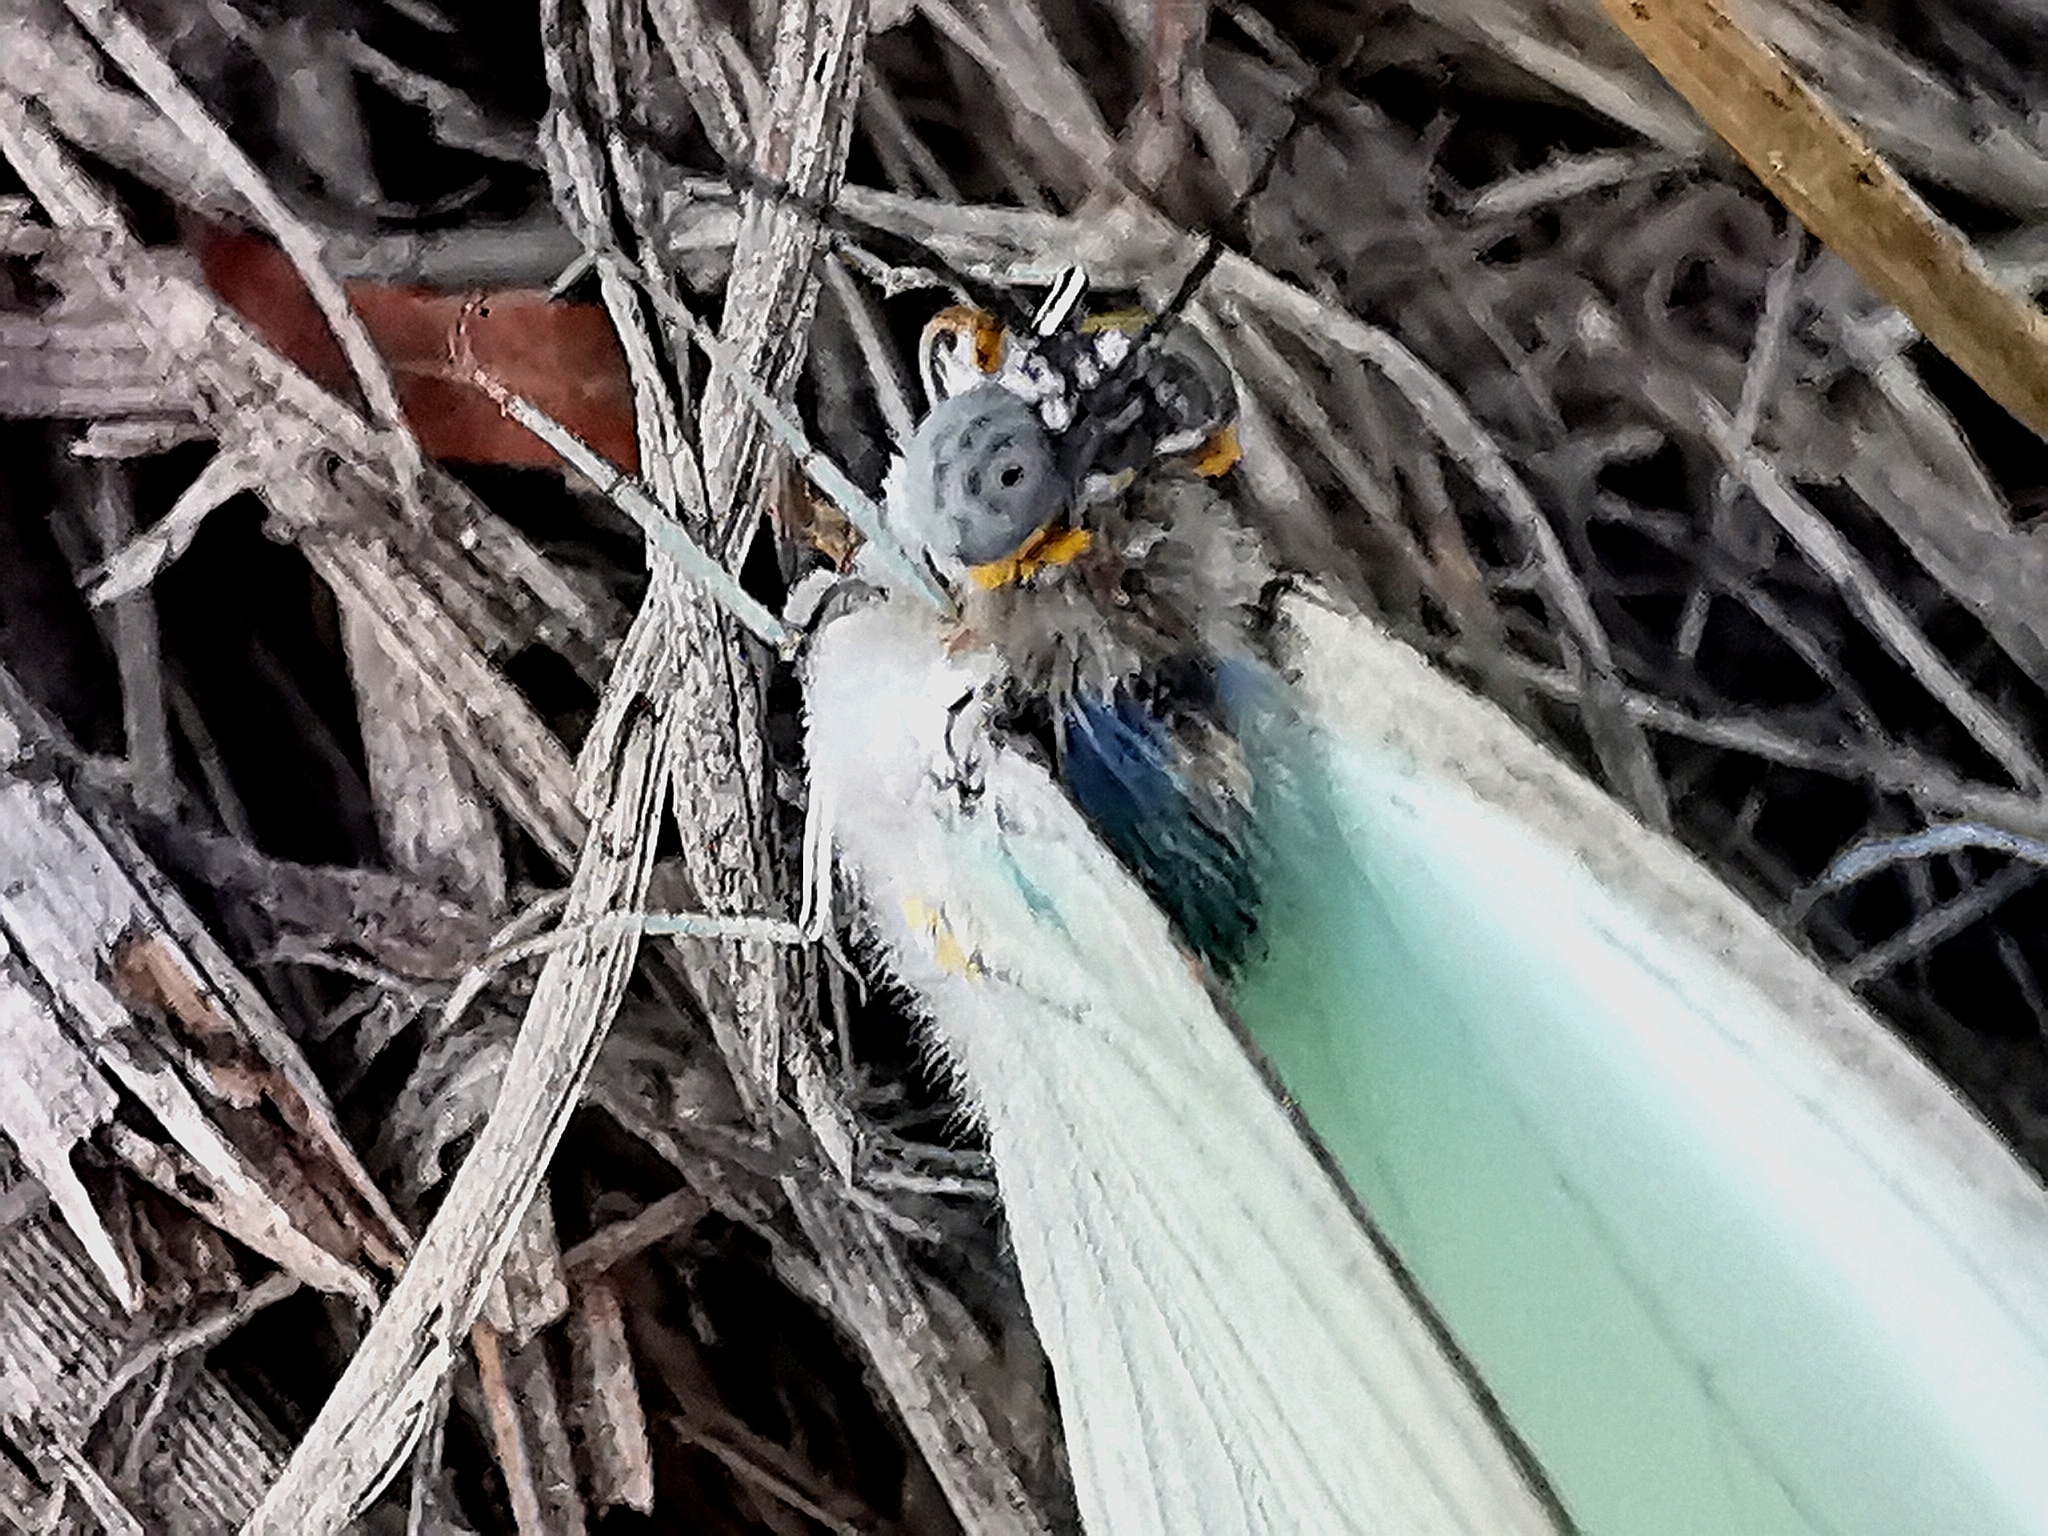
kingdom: Animalia
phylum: Arthropoda
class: Insecta
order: Lepidoptera
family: Pieridae
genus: Ascia
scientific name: Ascia monuste
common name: Great southern white
